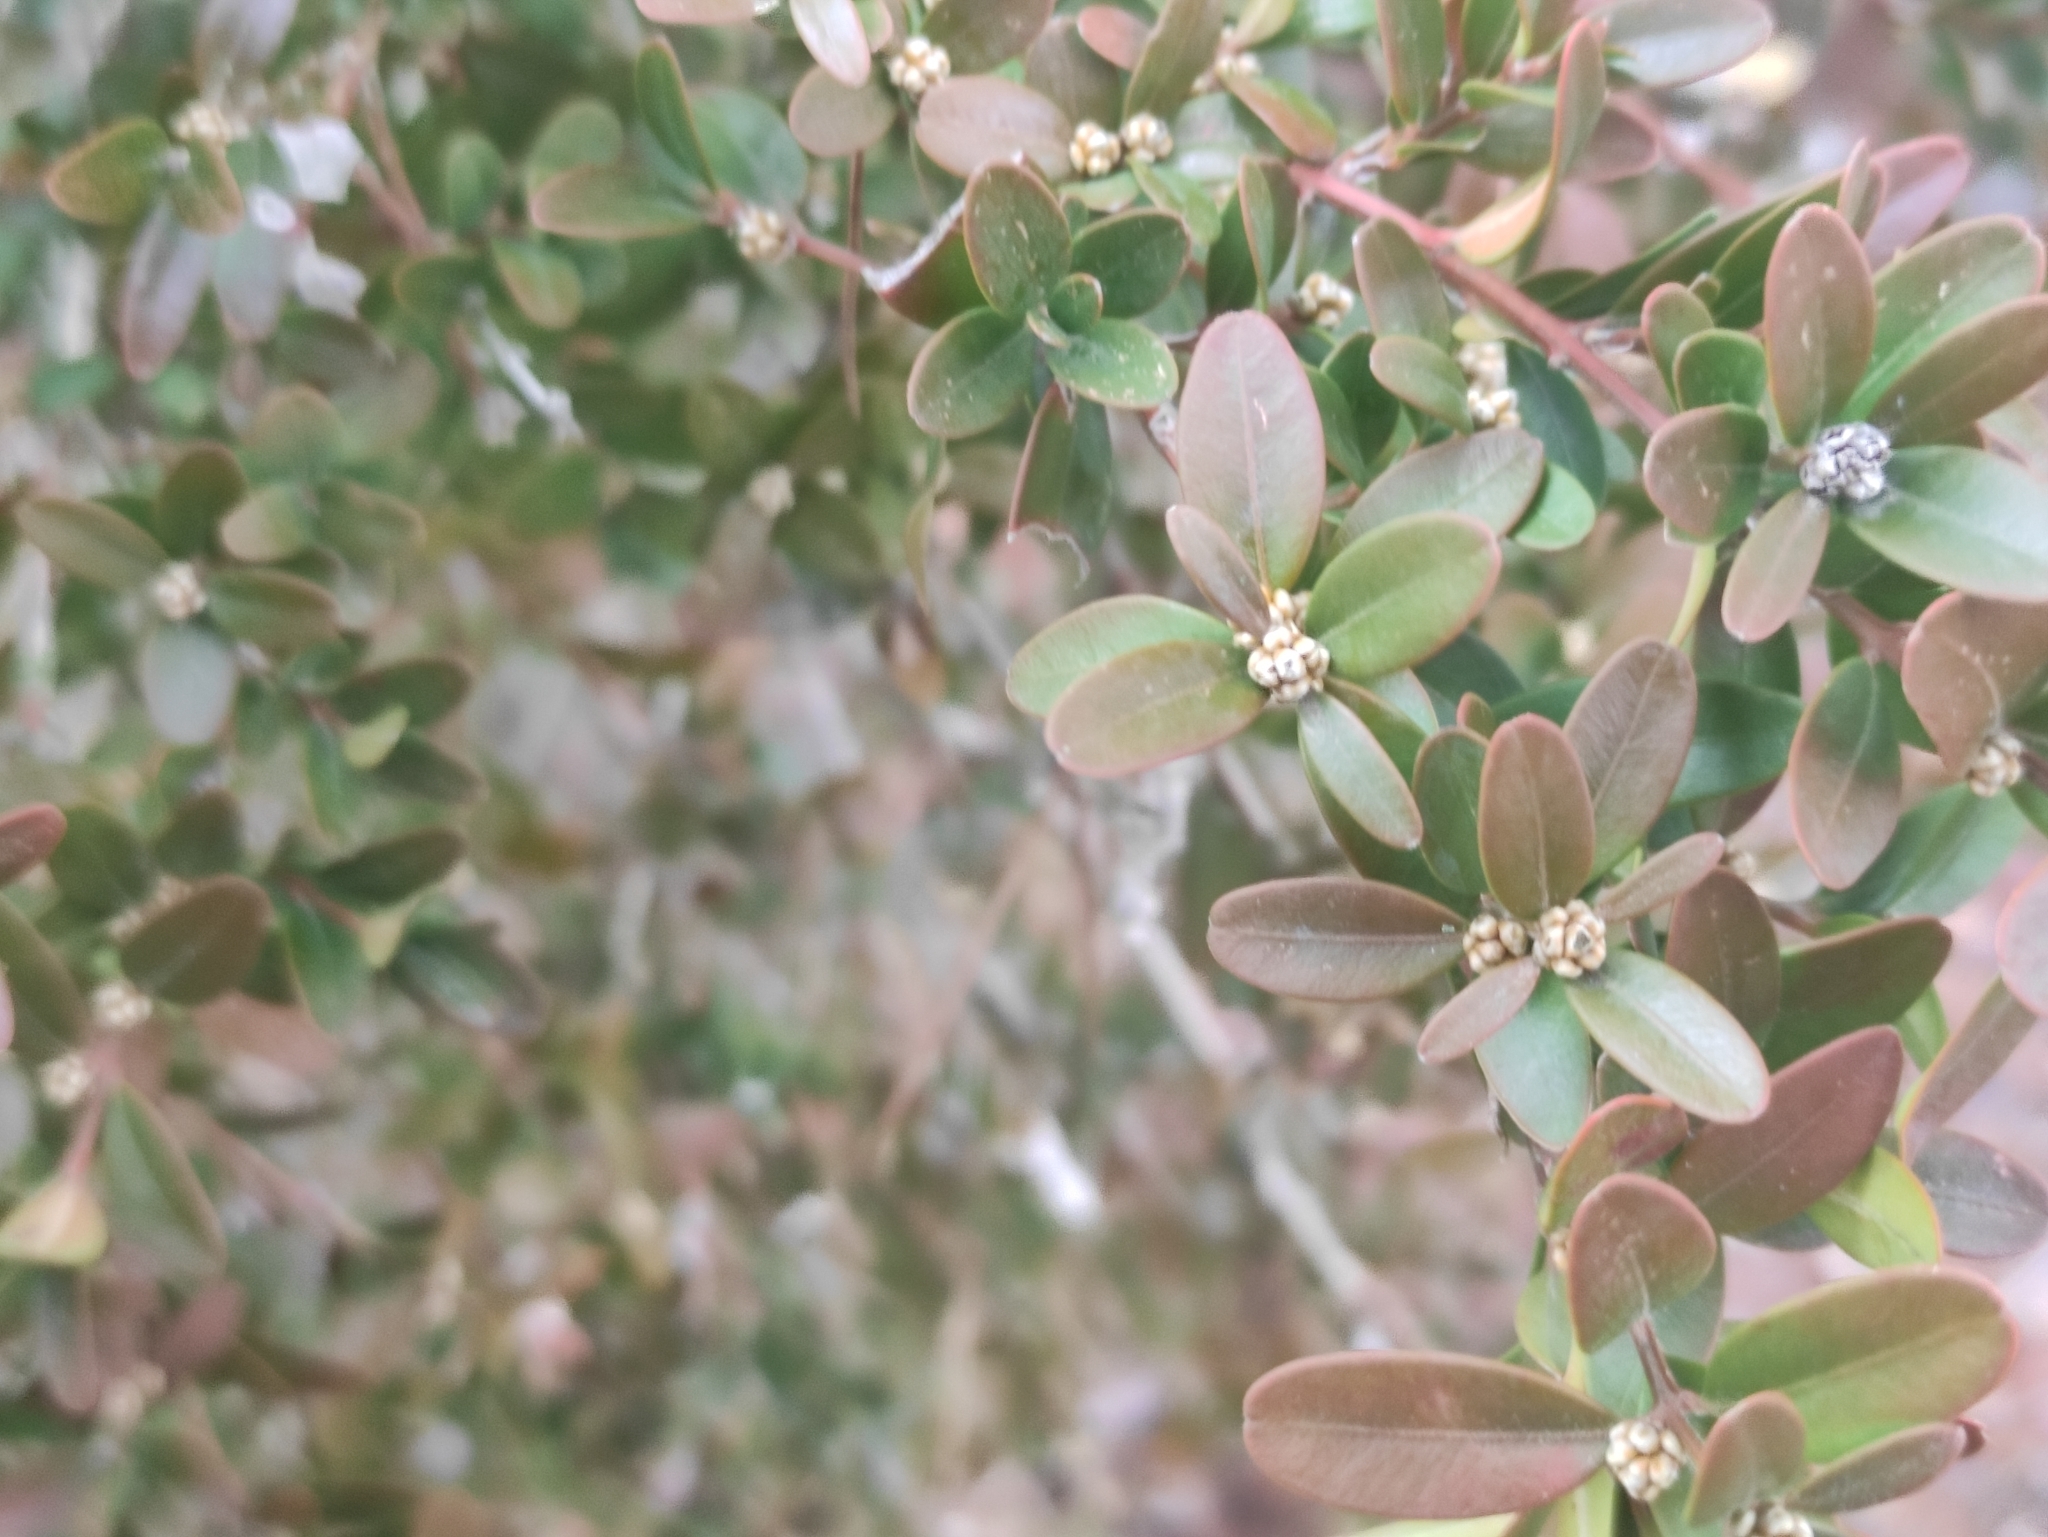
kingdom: Plantae
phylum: Tracheophyta
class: Magnoliopsida
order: Buxales
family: Buxaceae
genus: Buxus
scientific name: Buxus sempervirens
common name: Box
